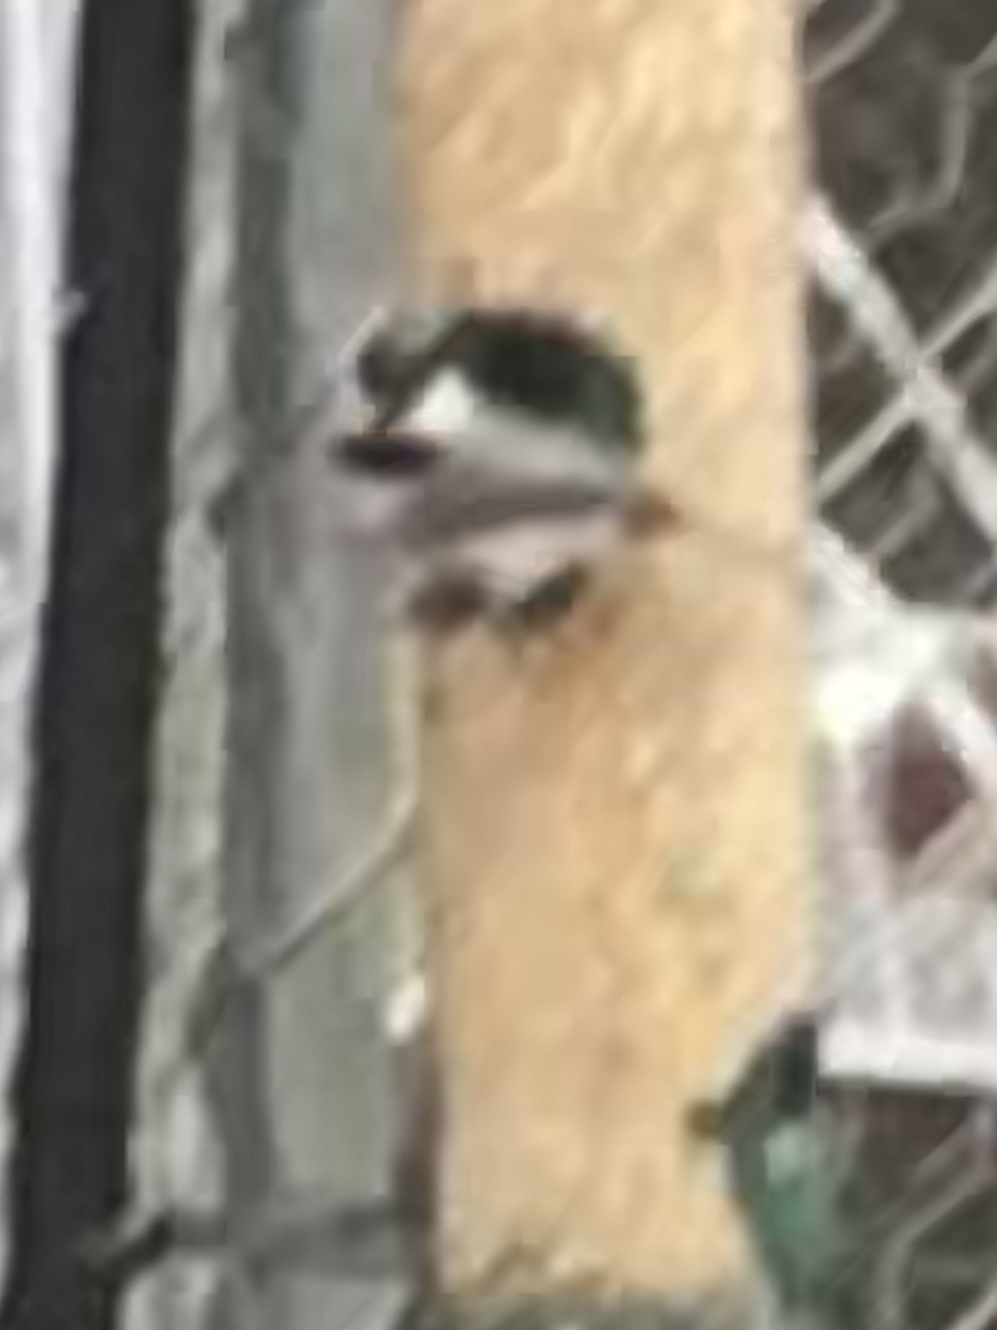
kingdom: Animalia
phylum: Chordata
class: Aves
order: Passeriformes
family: Paridae
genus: Poecile
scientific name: Poecile carolinensis
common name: Carolina chickadee
